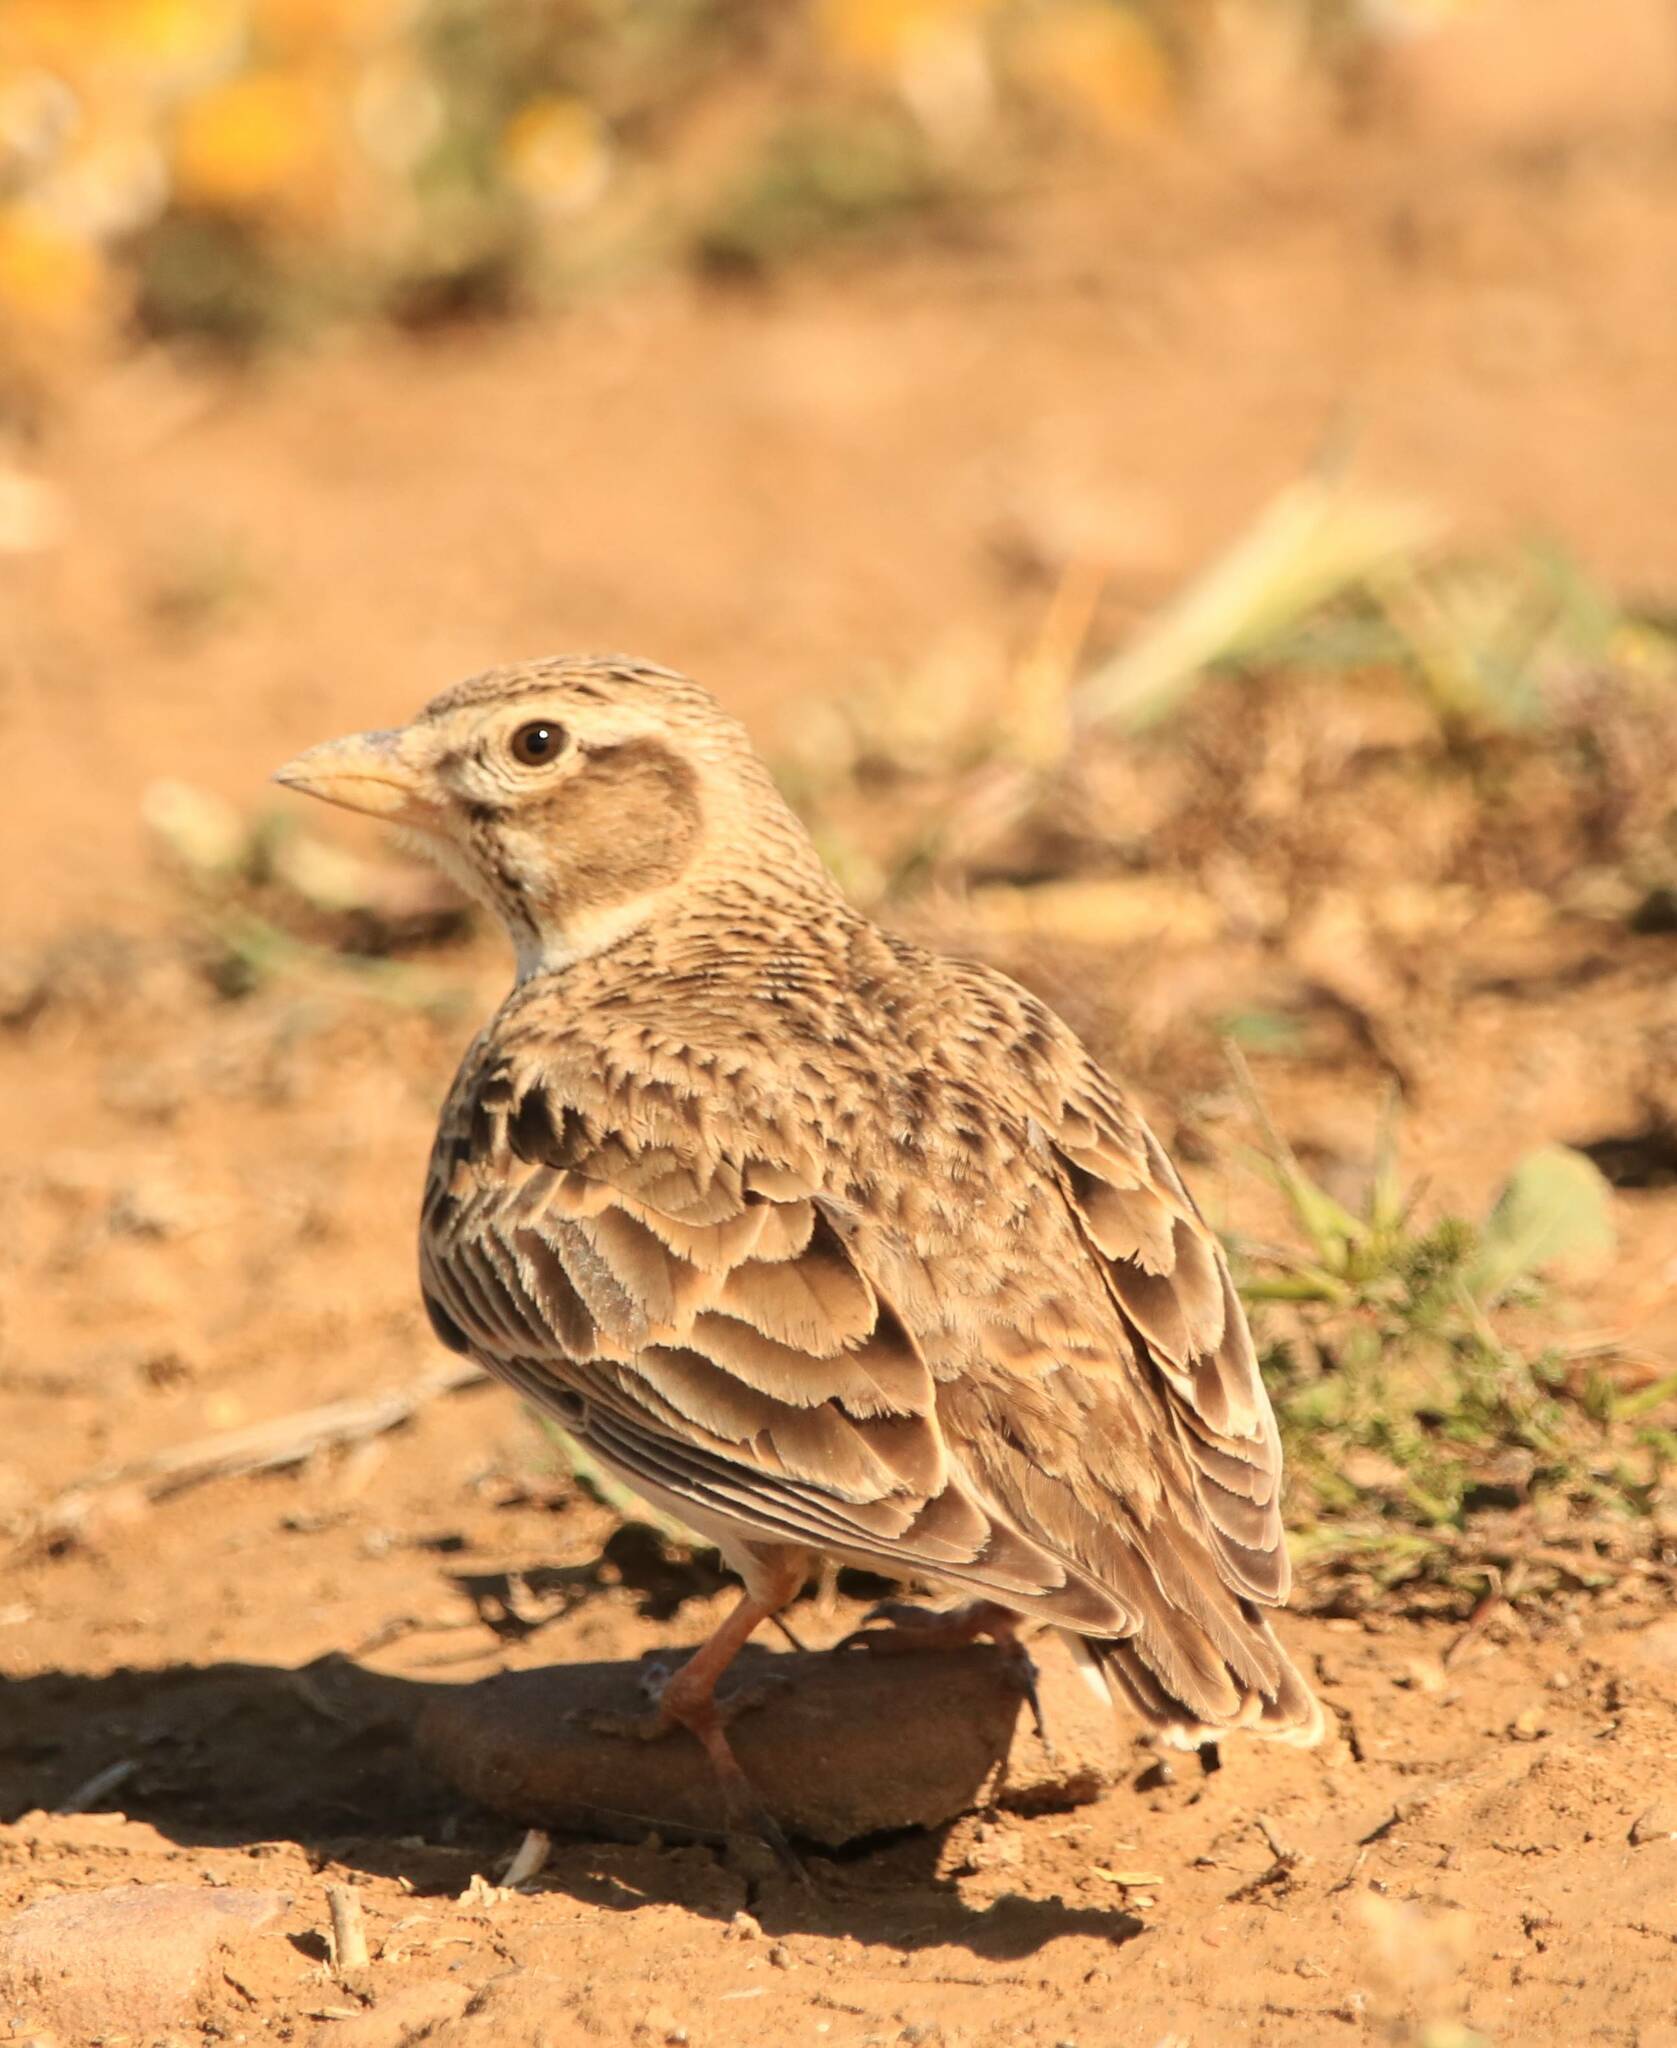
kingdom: Animalia
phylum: Chordata
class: Aves
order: Passeriformes
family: Alaudidae
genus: Melanocorypha
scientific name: Melanocorypha calandra
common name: Calandra lark
